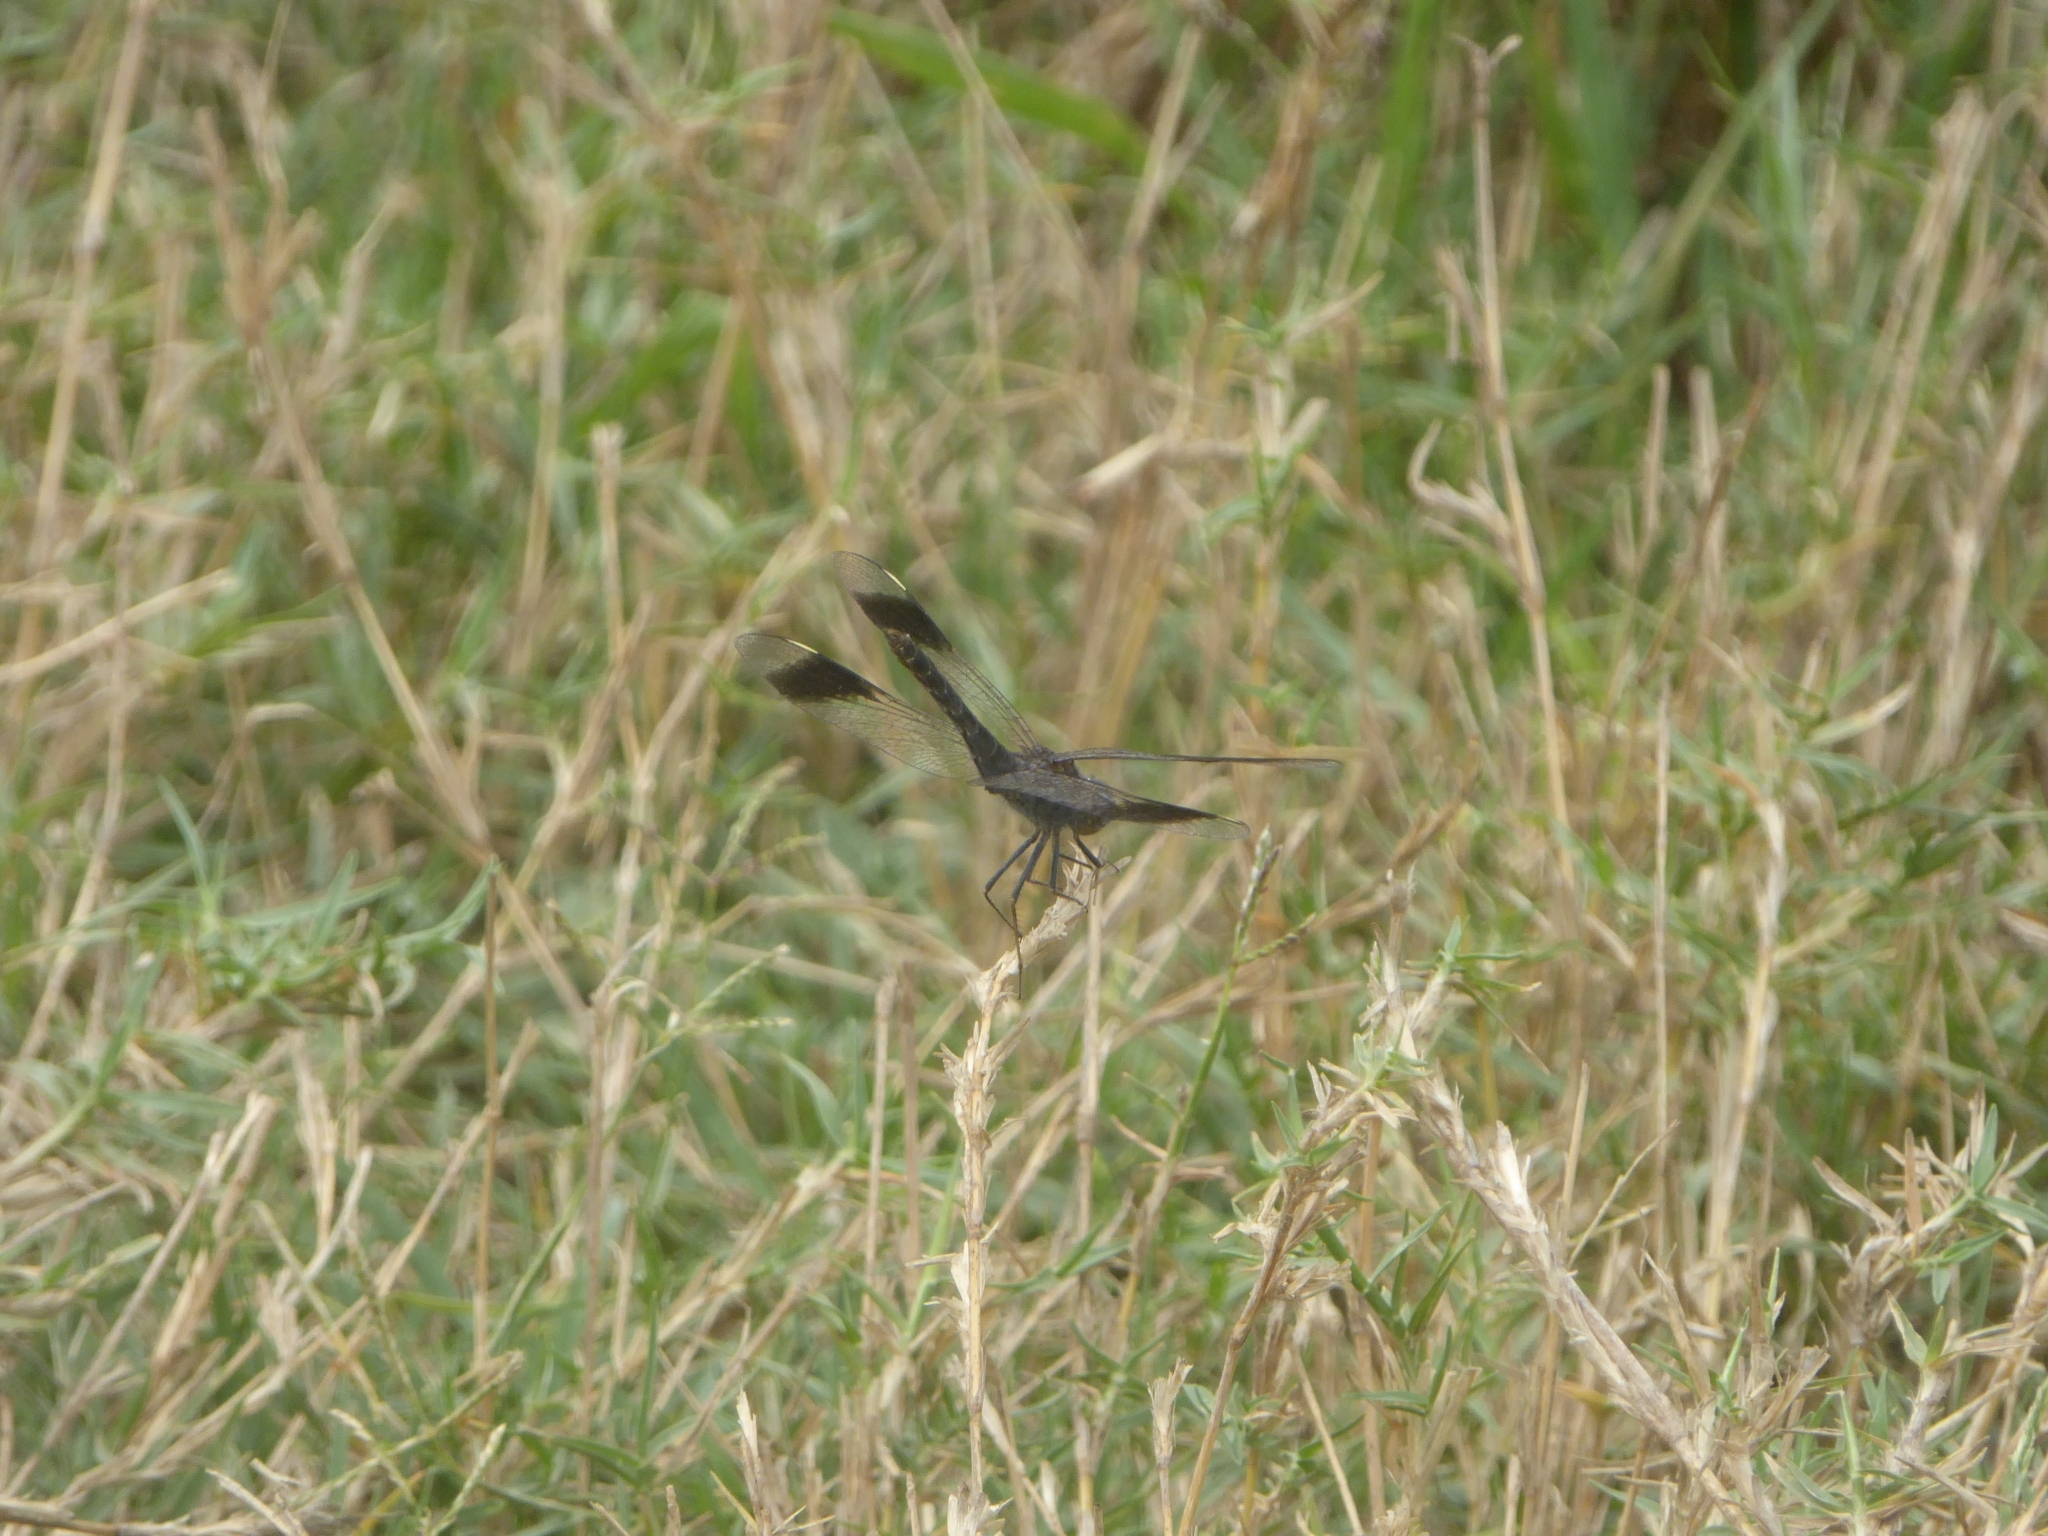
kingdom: Animalia
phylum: Arthropoda
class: Insecta
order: Odonata
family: Libellulidae
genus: Brachythemis
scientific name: Brachythemis leucosticta
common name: Banded groundling
